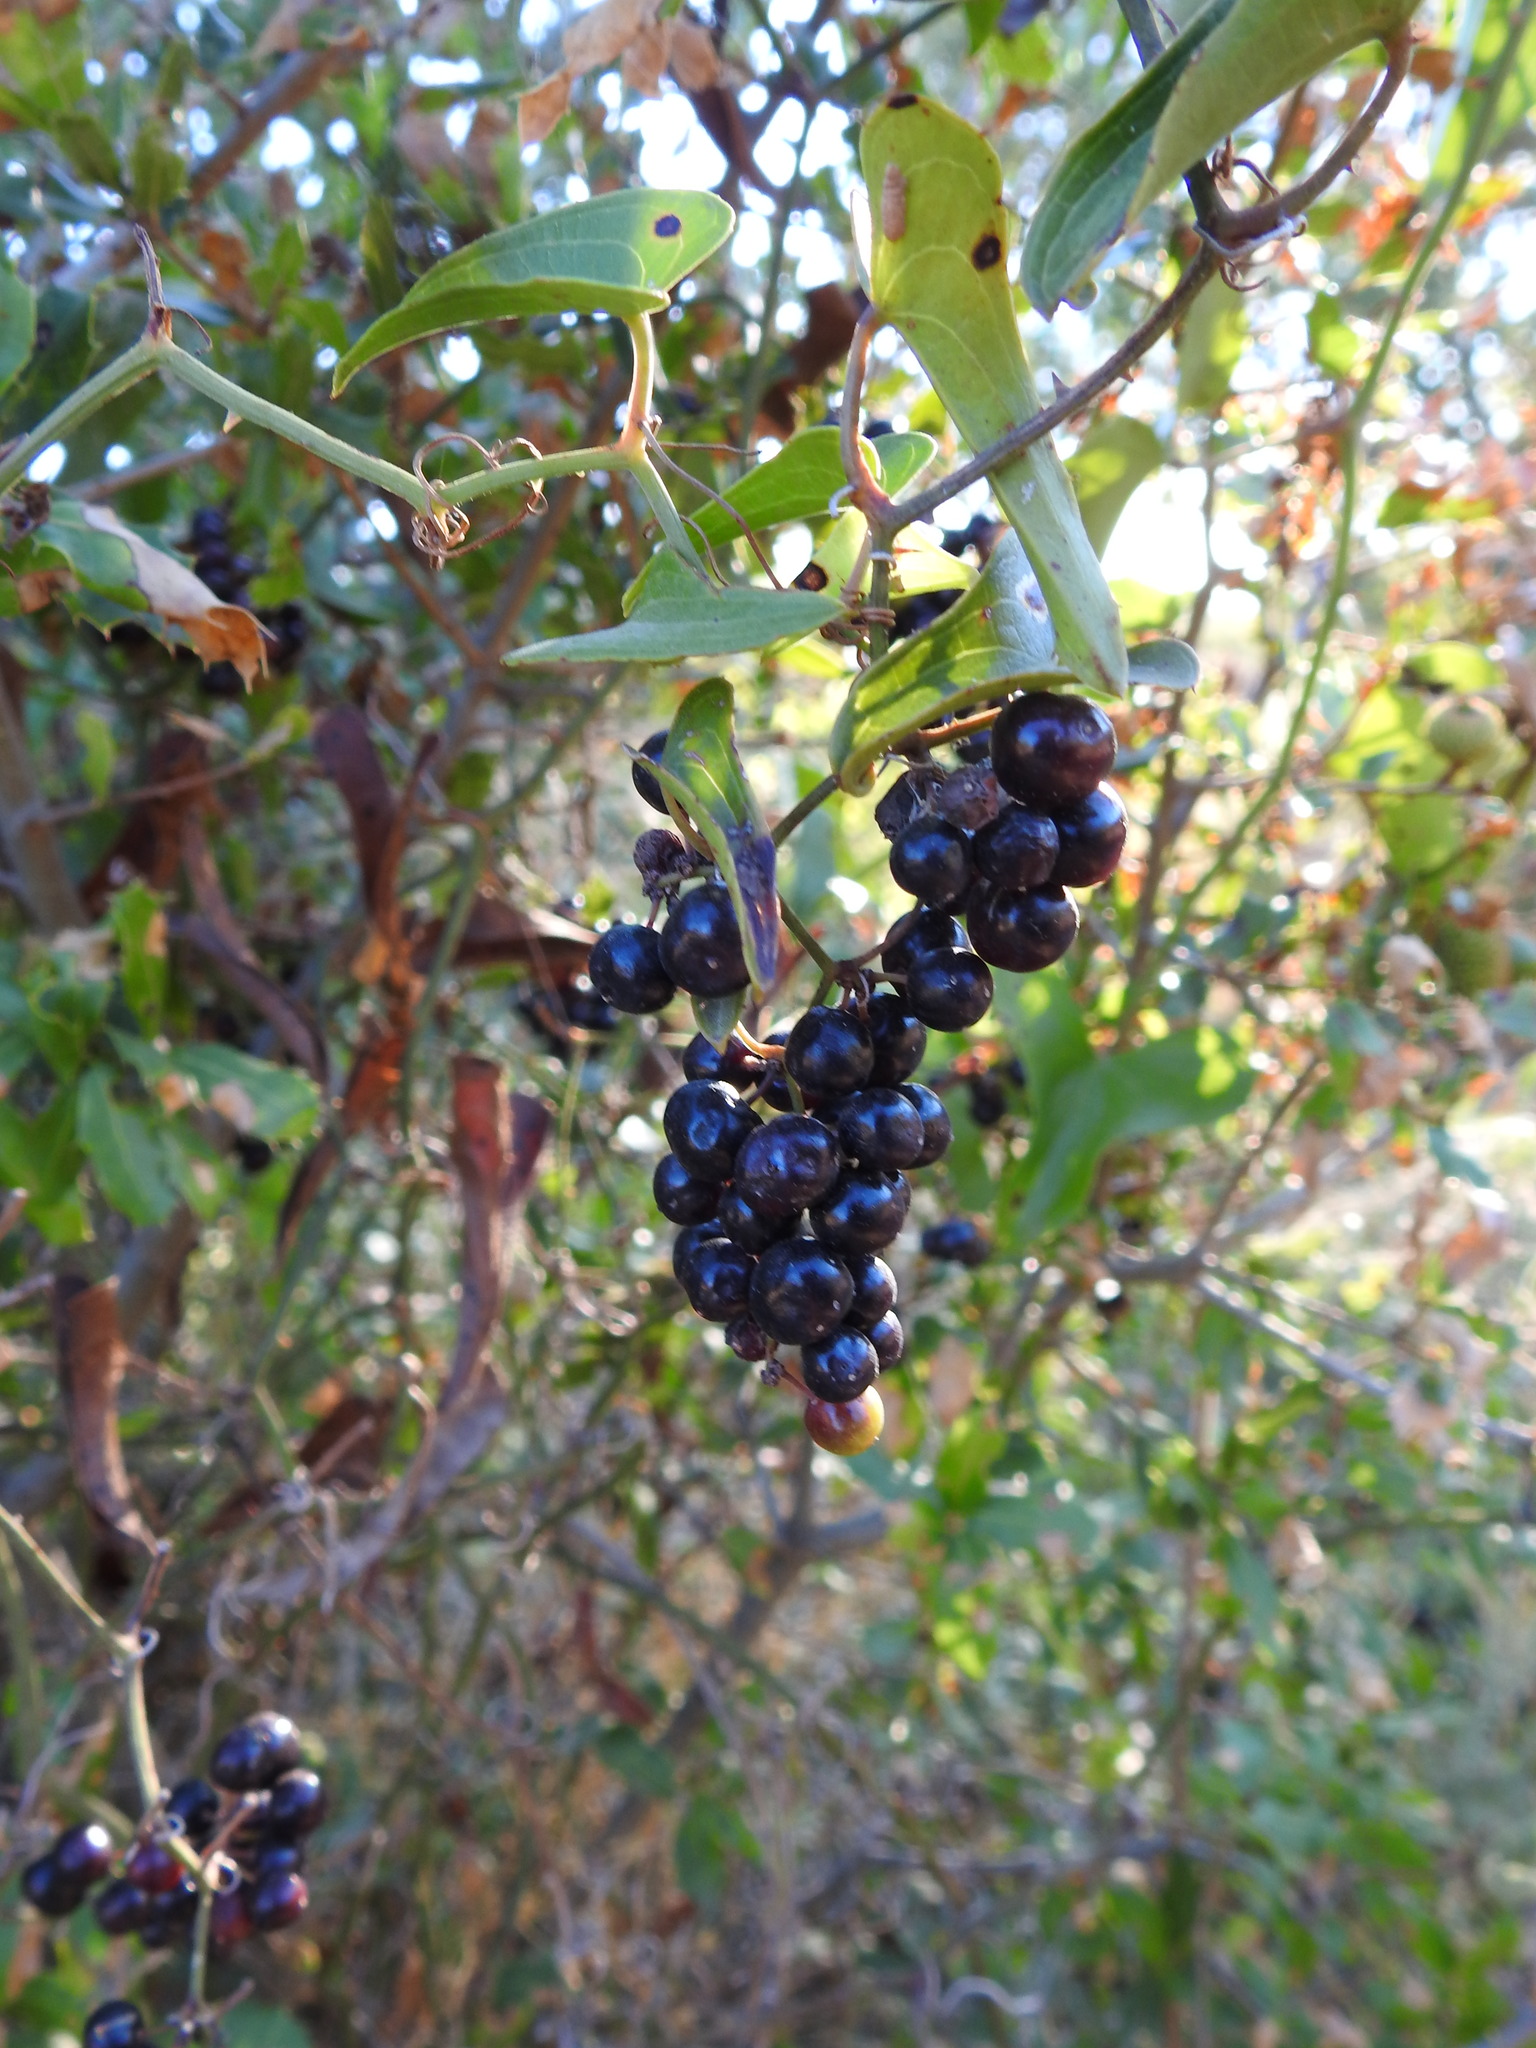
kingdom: Plantae
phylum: Tracheophyta
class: Liliopsida
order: Liliales
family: Smilacaceae
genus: Smilax
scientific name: Smilax aspera
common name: Common smilax
